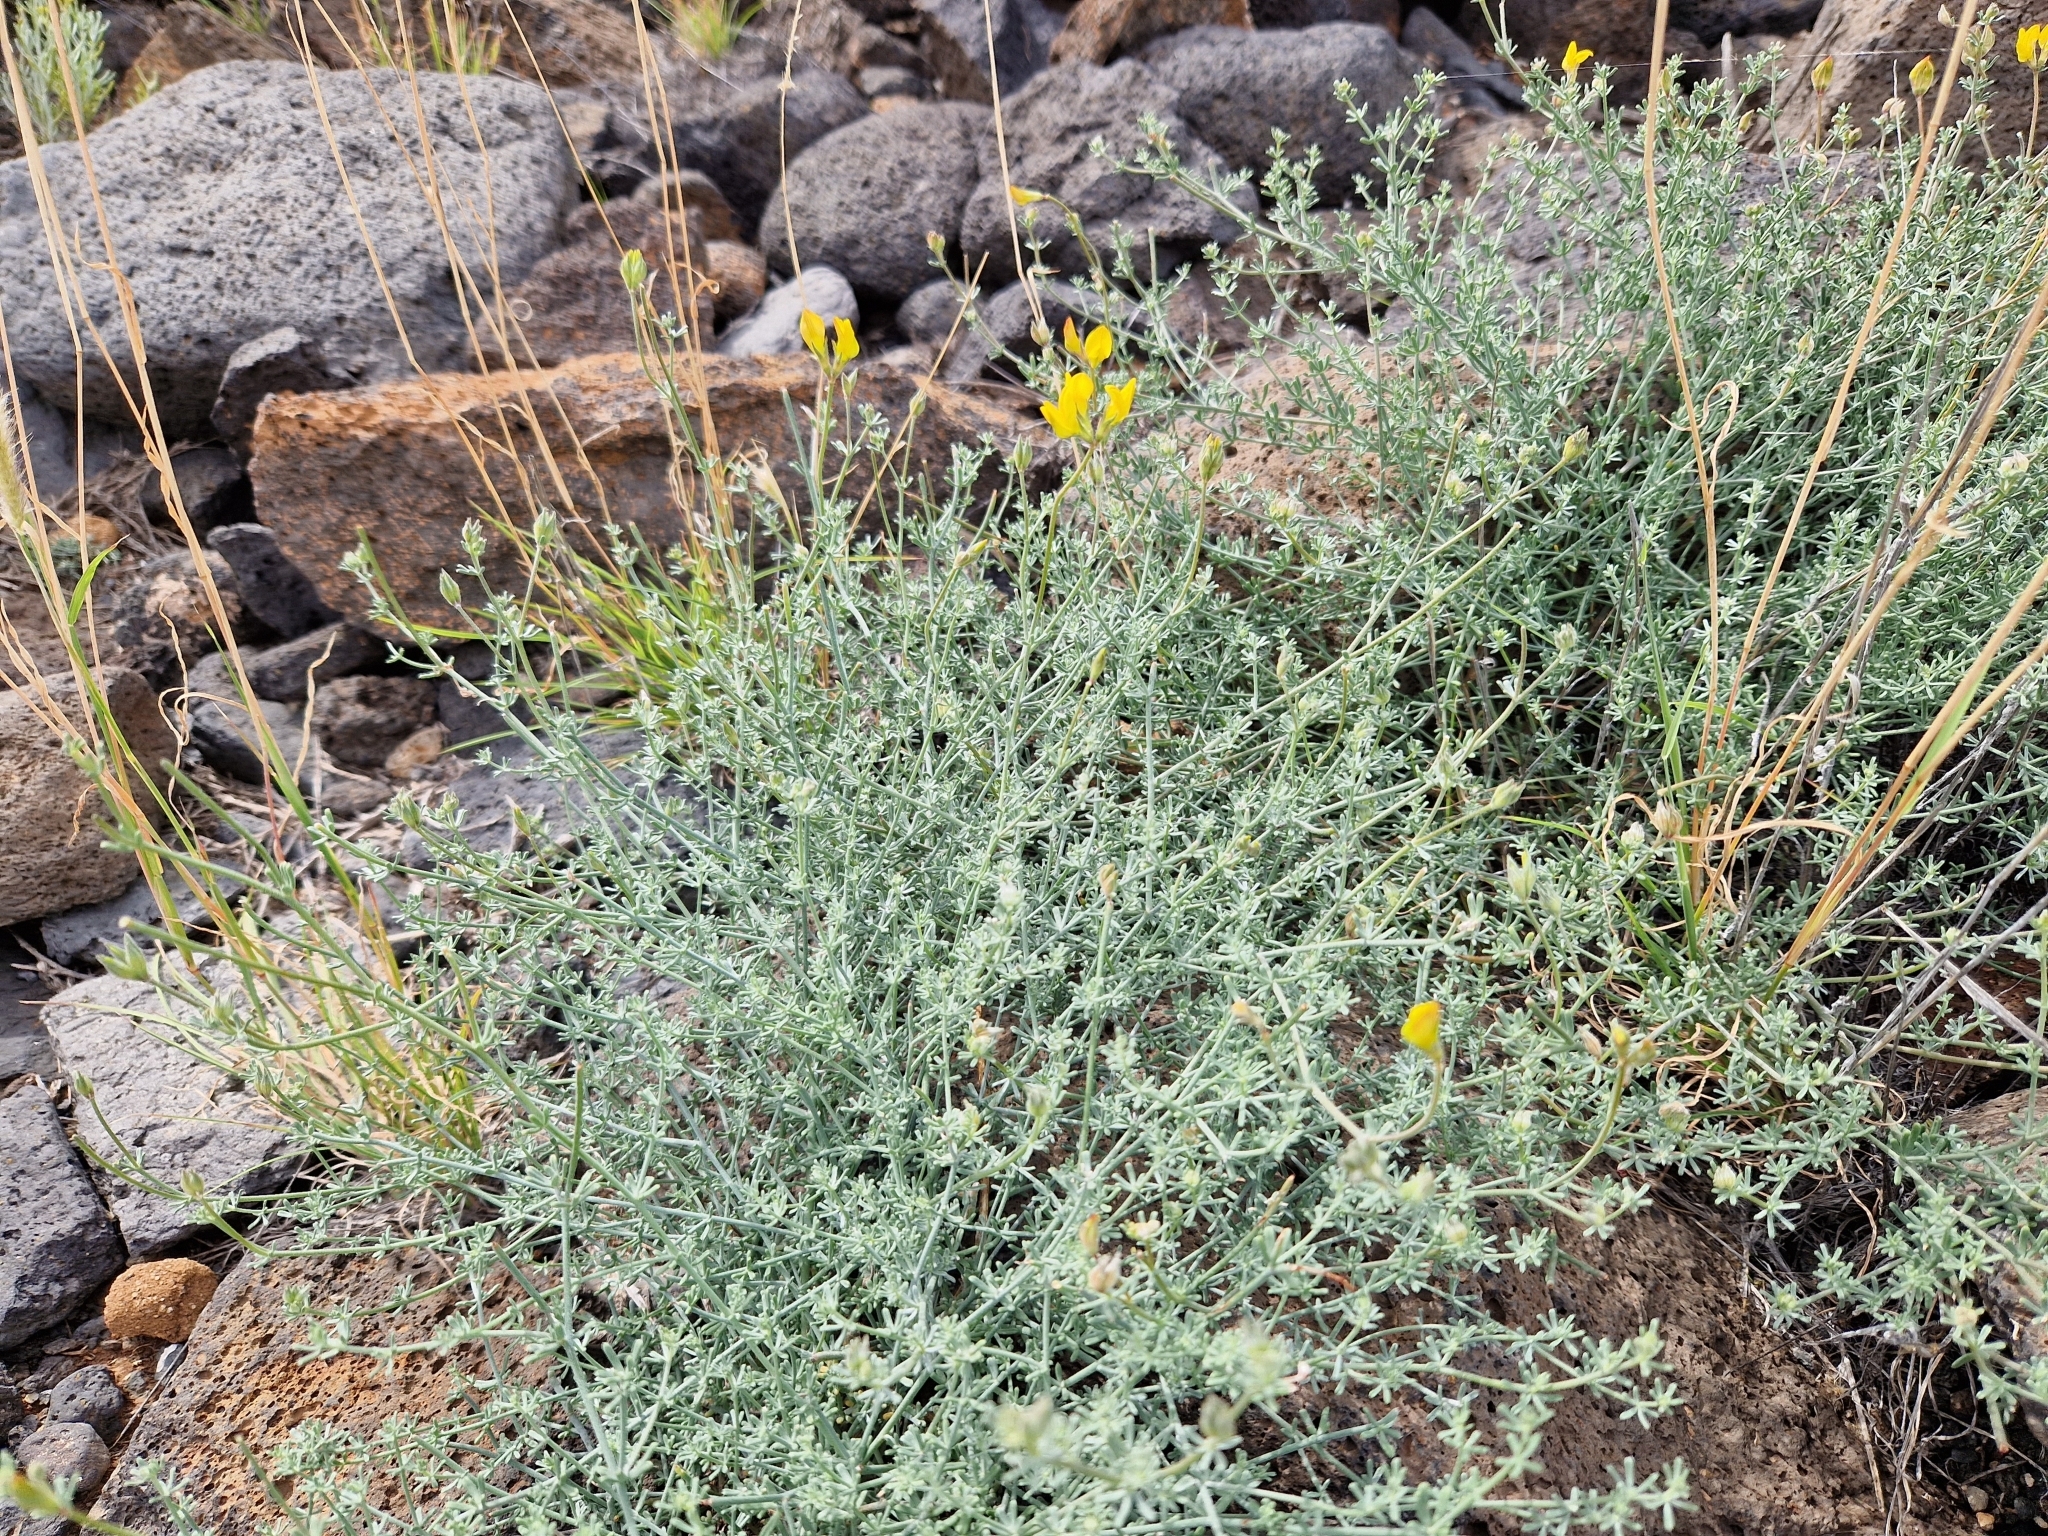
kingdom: Plantae
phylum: Tracheophyta
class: Magnoliopsida
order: Fabales
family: Fabaceae
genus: Lotus
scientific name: Lotus sessilifolius
